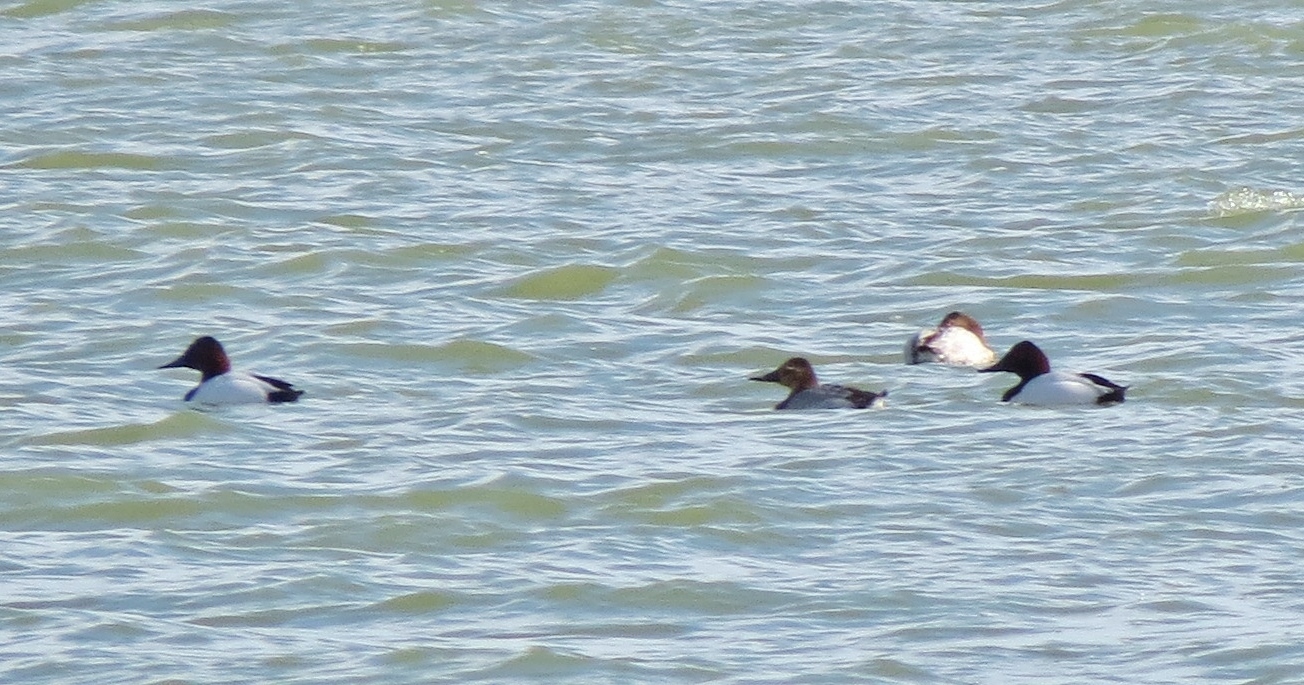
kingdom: Animalia
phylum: Chordata
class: Aves
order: Anseriformes
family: Anatidae
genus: Aythya
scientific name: Aythya valisineria
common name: Canvasback
